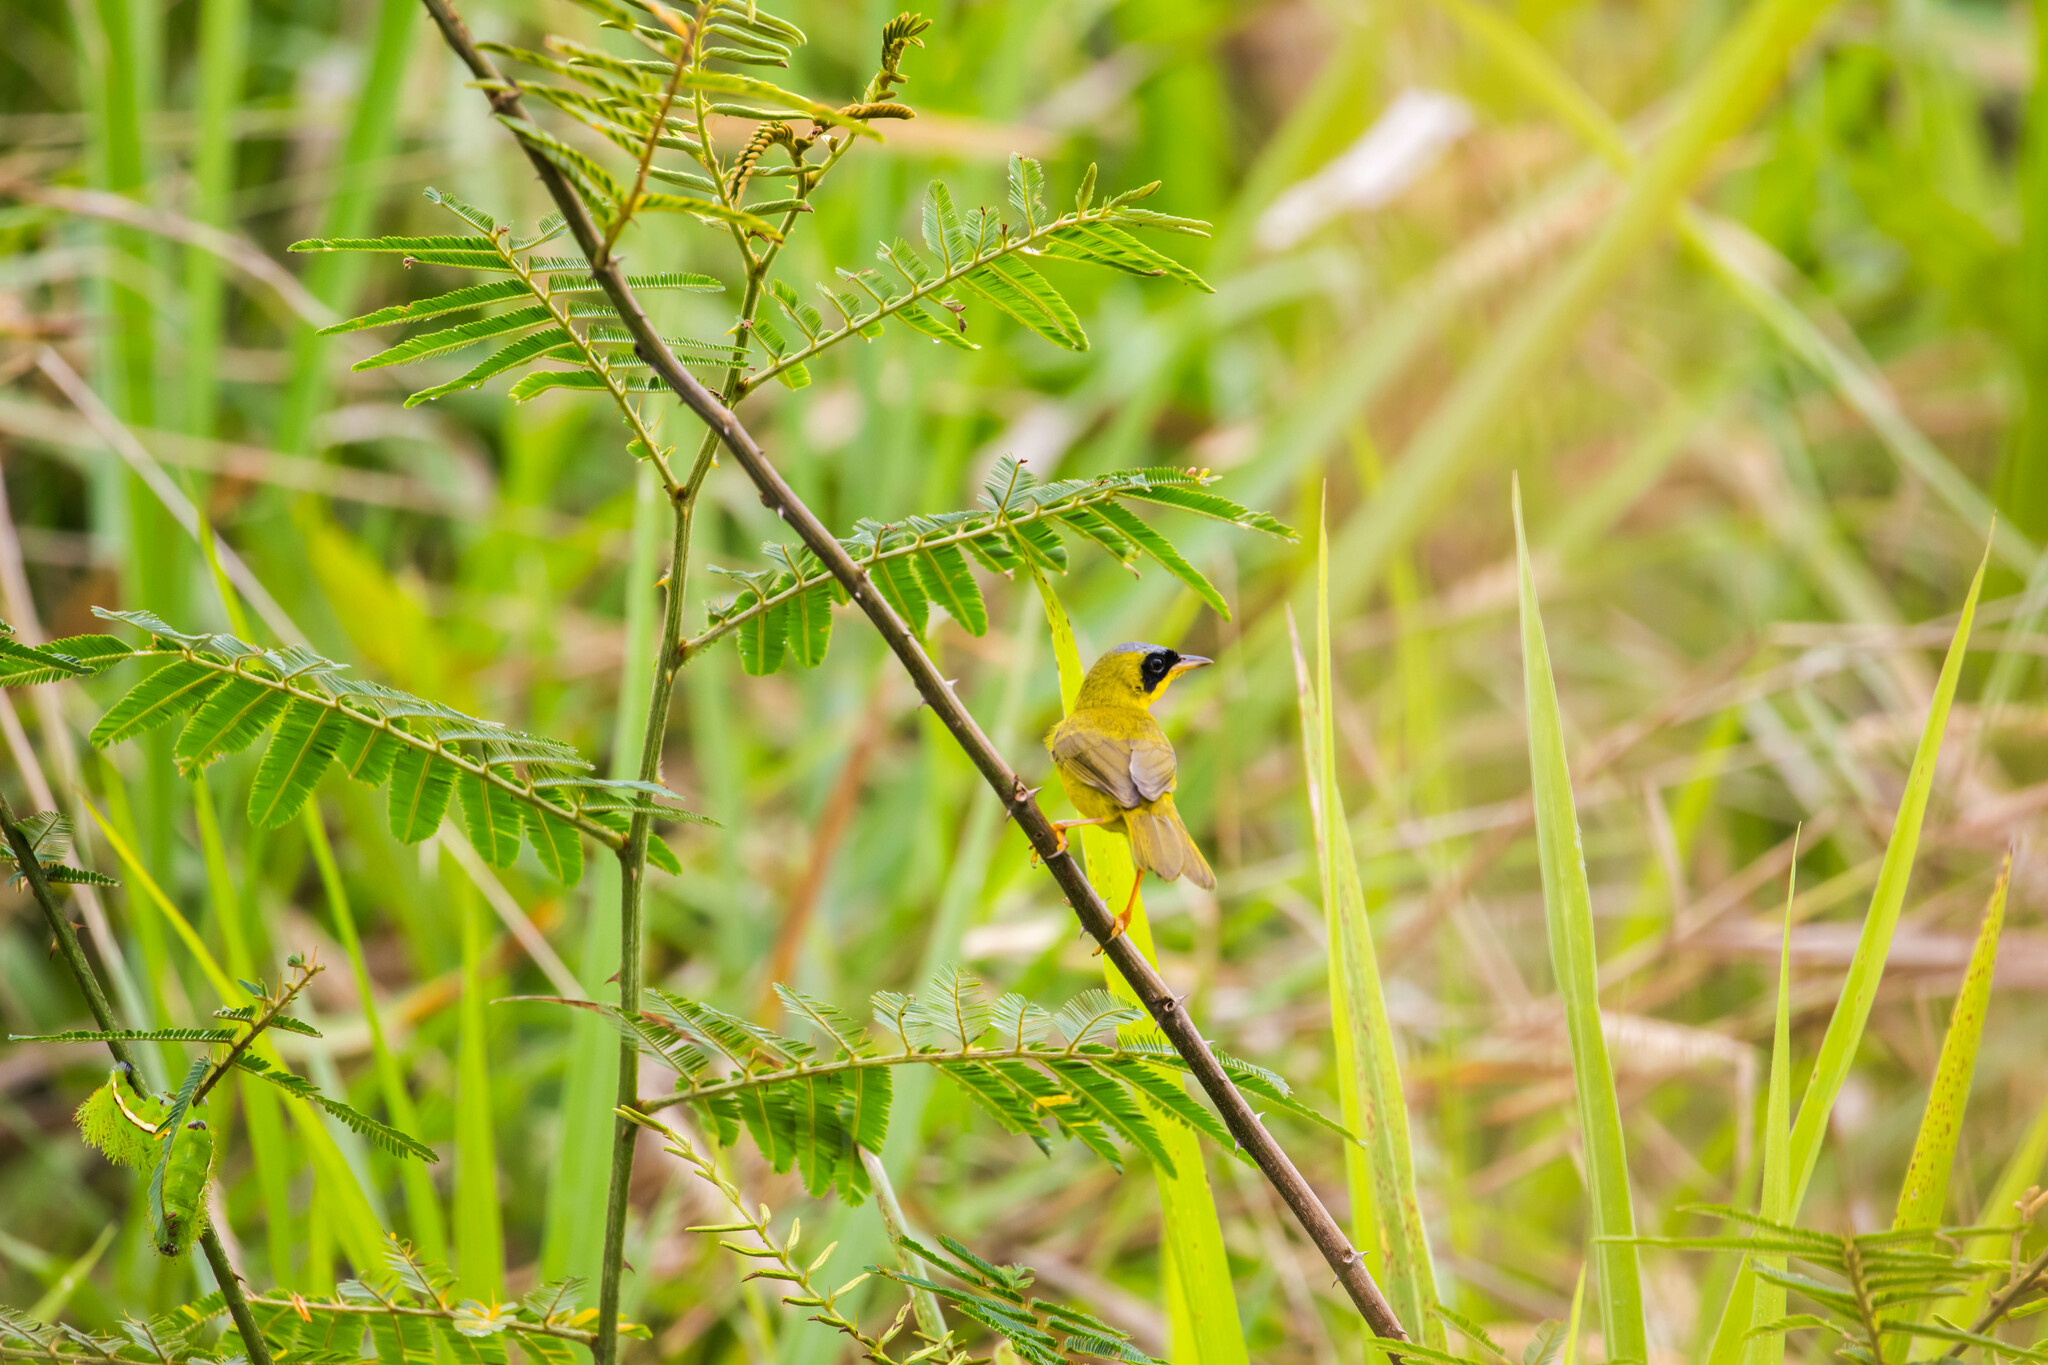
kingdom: Animalia
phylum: Chordata
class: Aves
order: Passeriformes
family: Parulidae
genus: Geothlypis
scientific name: Geothlypis aequinoctialis
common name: Masked yellowthroat
